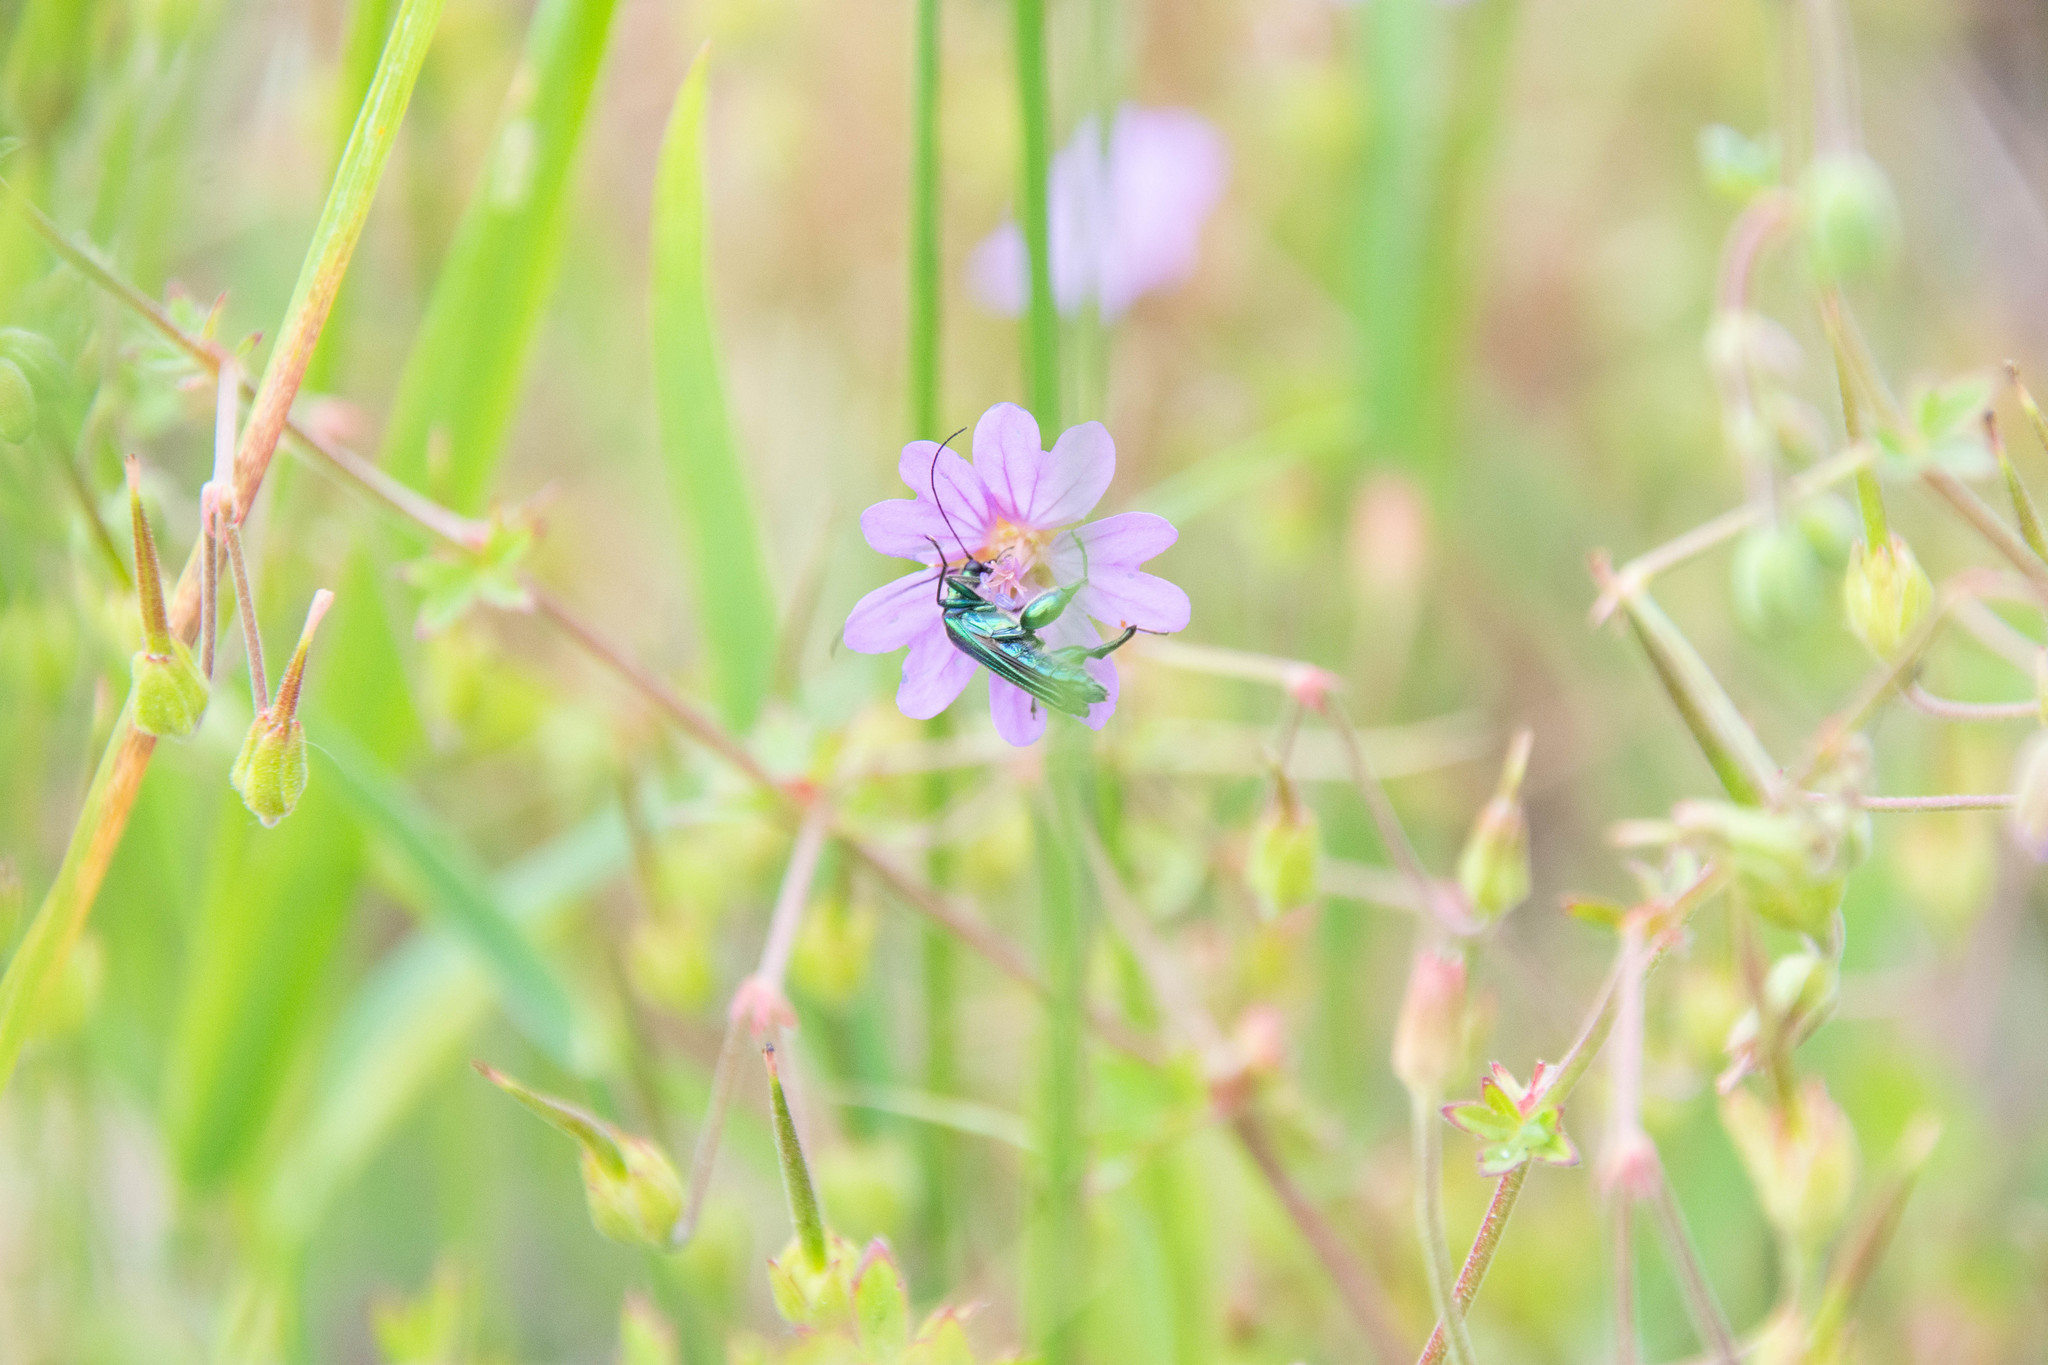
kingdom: Animalia
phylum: Arthropoda
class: Insecta
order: Coleoptera
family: Oedemeridae
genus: Oedemera
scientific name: Oedemera nobilis
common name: Swollen-thighed beetle
